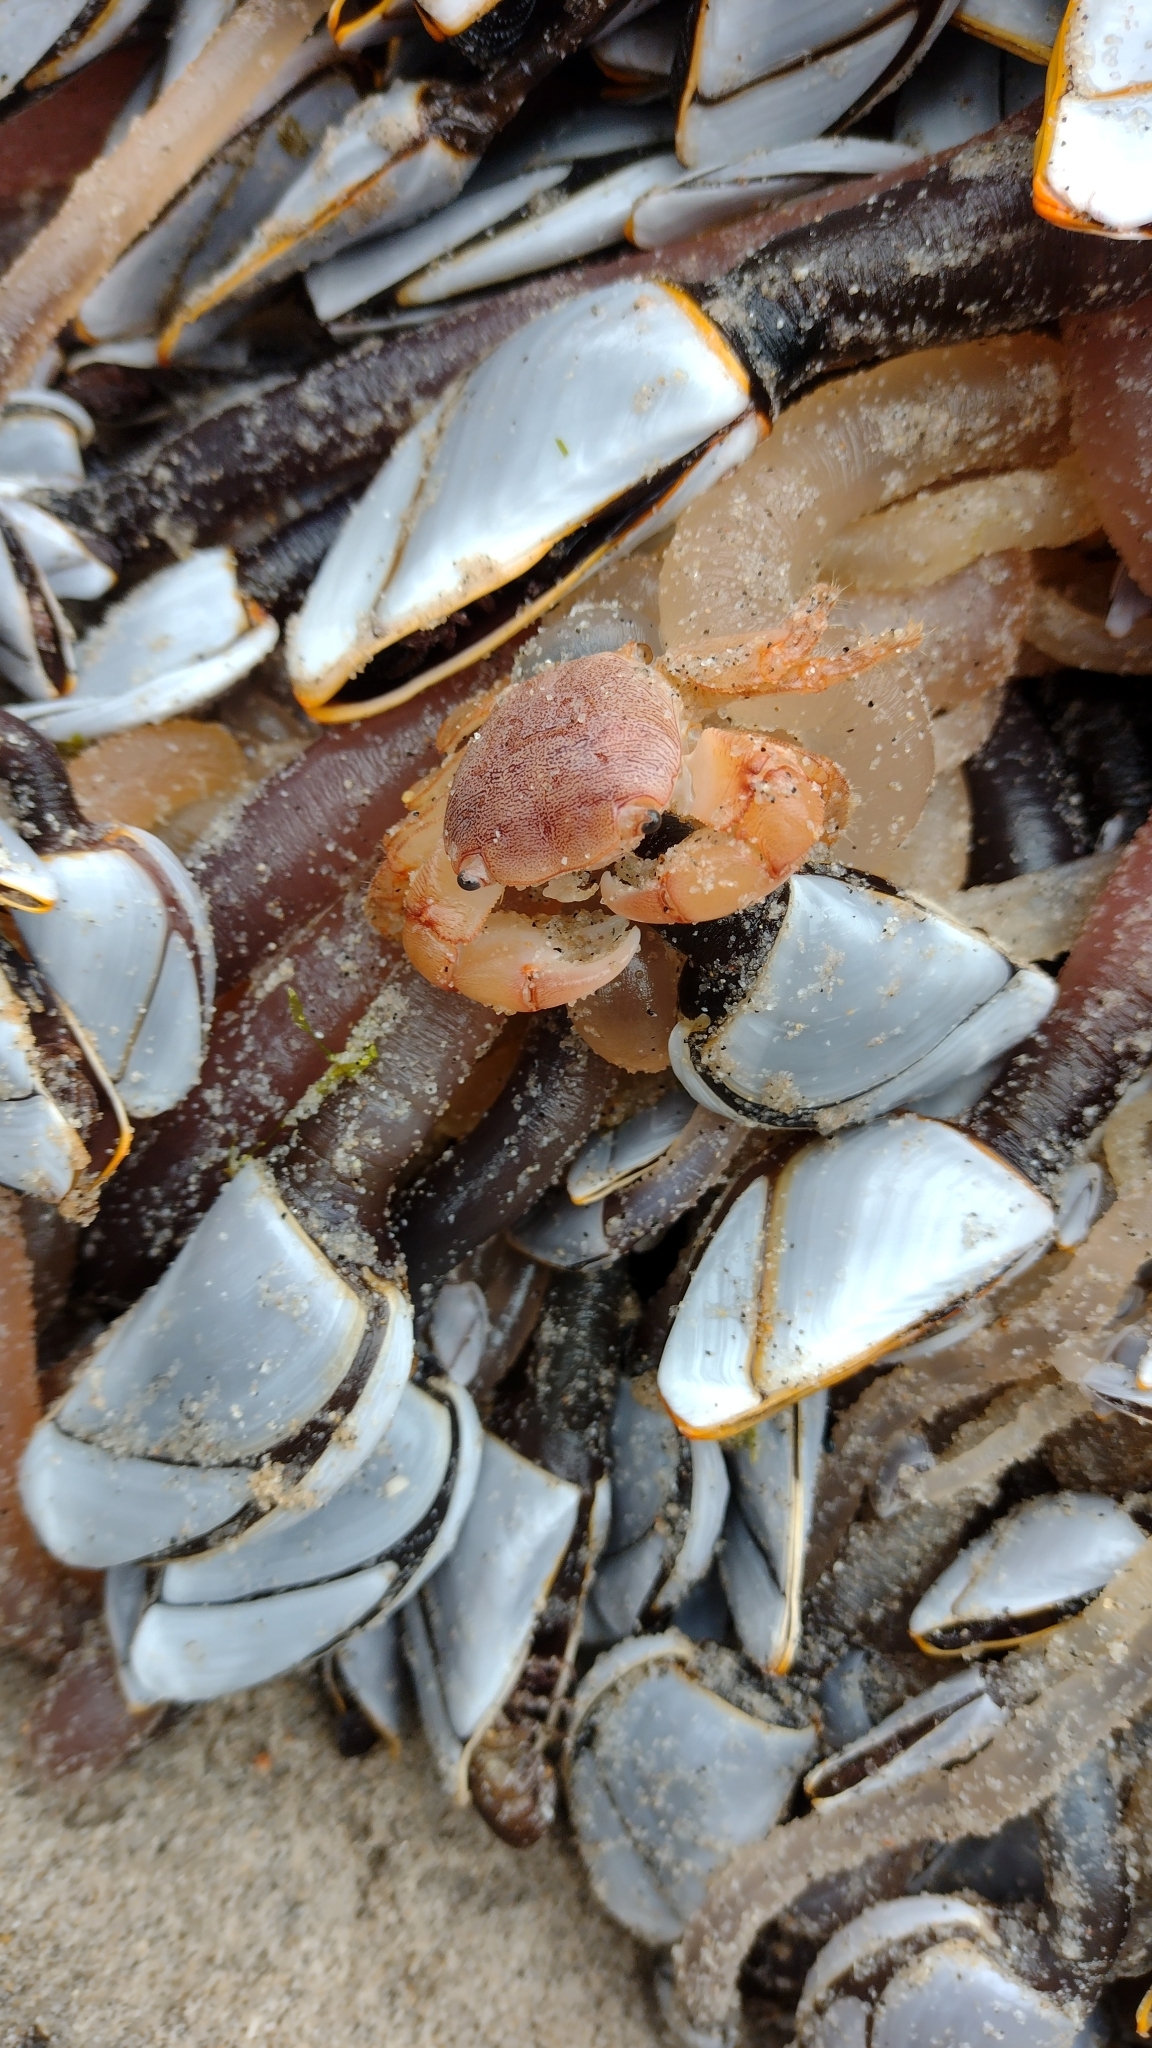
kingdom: Animalia
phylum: Arthropoda
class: Malacostraca
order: Decapoda
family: Grapsidae
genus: Planes
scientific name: Planes minutus
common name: Gulf weed crab
